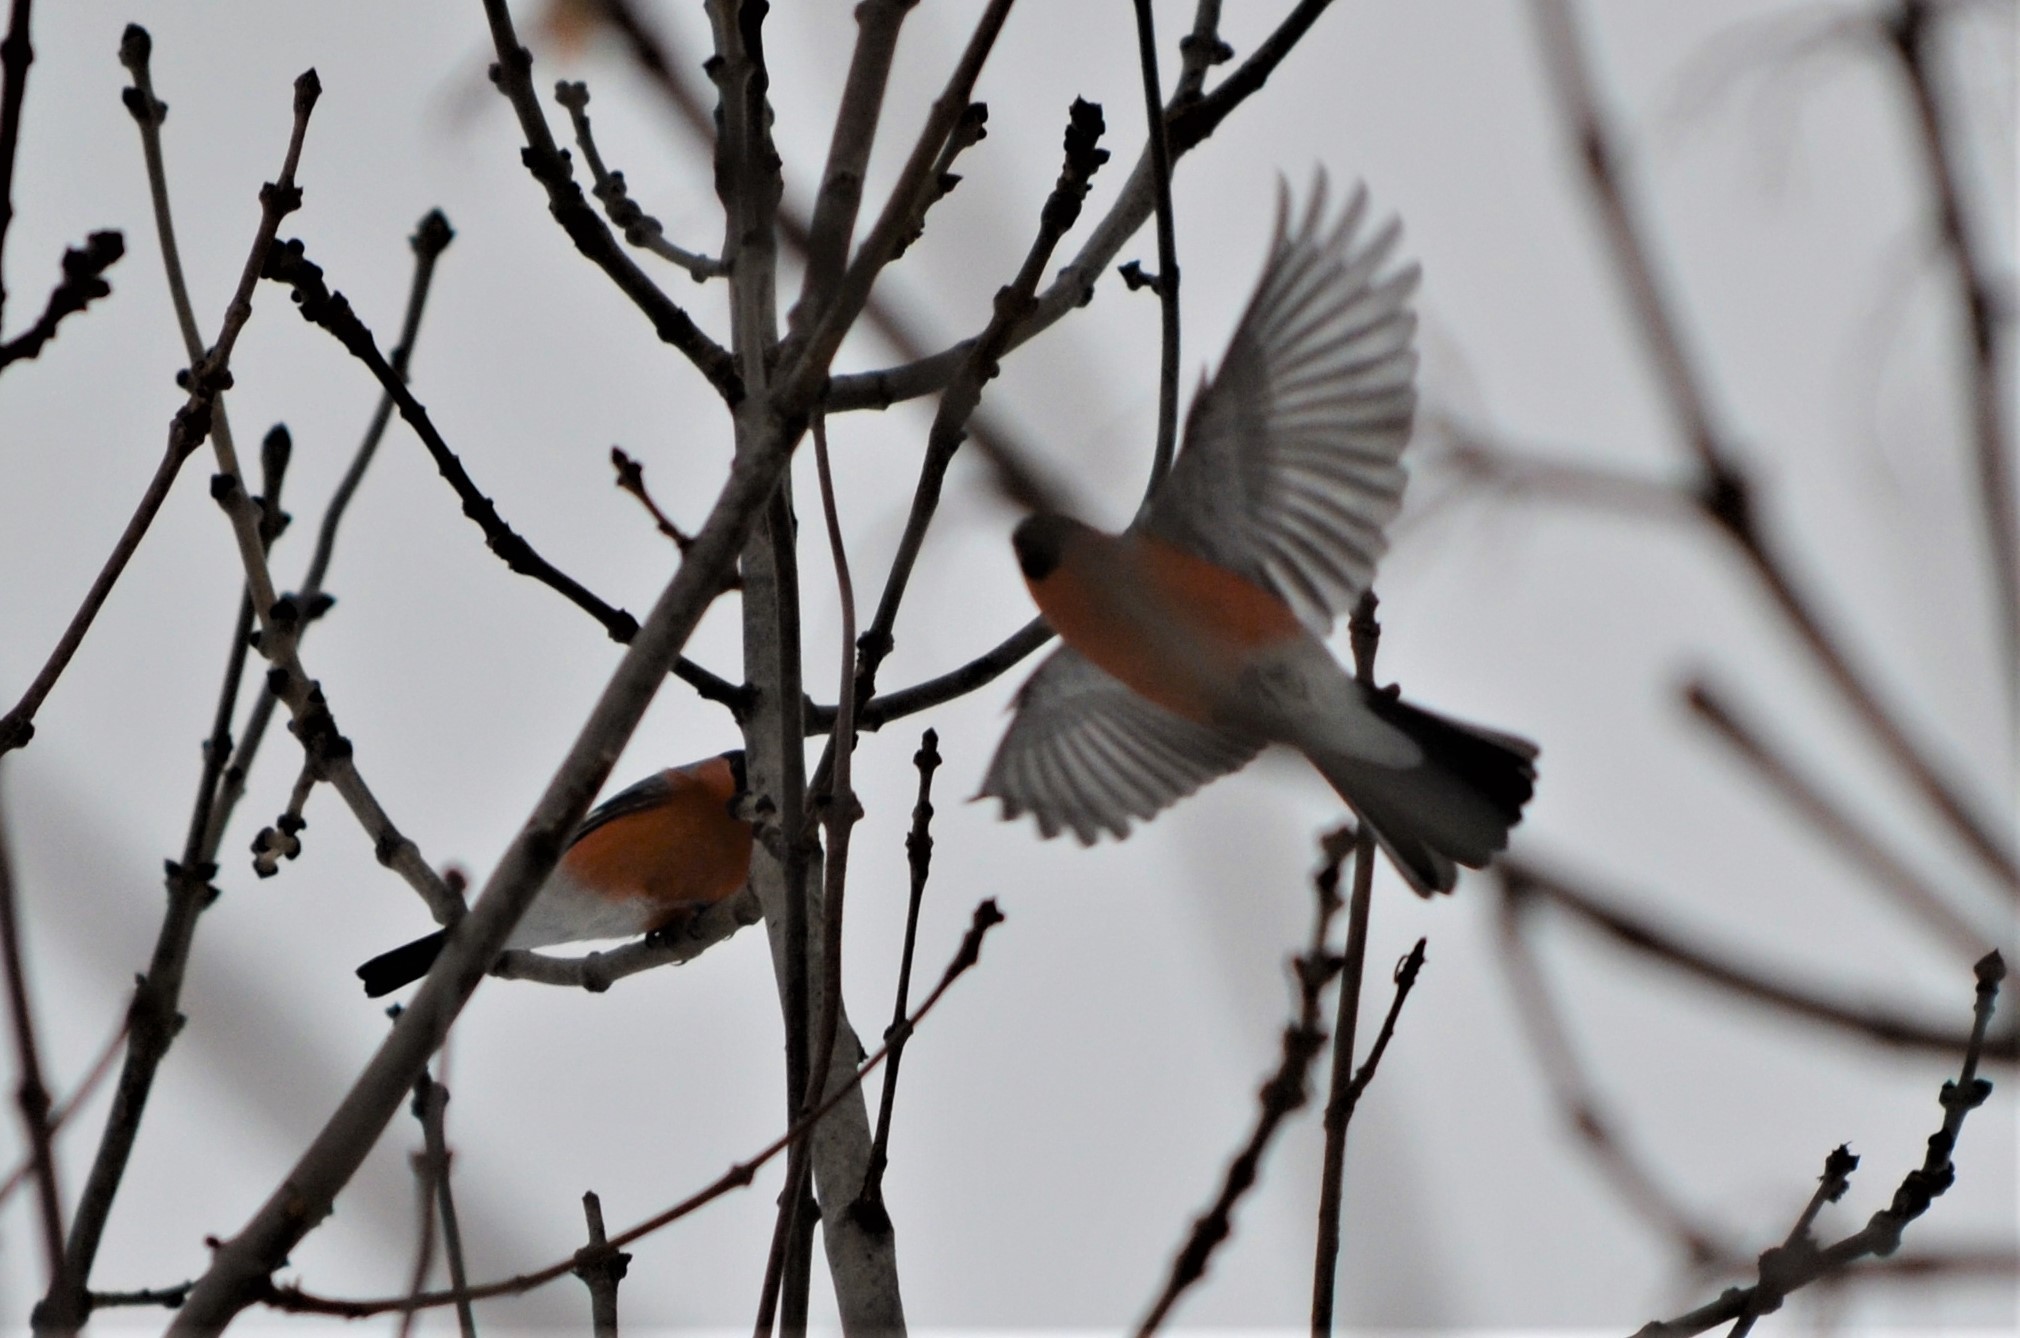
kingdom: Animalia
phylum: Chordata
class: Aves
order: Passeriformes
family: Fringillidae
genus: Pyrrhula
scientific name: Pyrrhula pyrrhula
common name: Eurasian bullfinch
